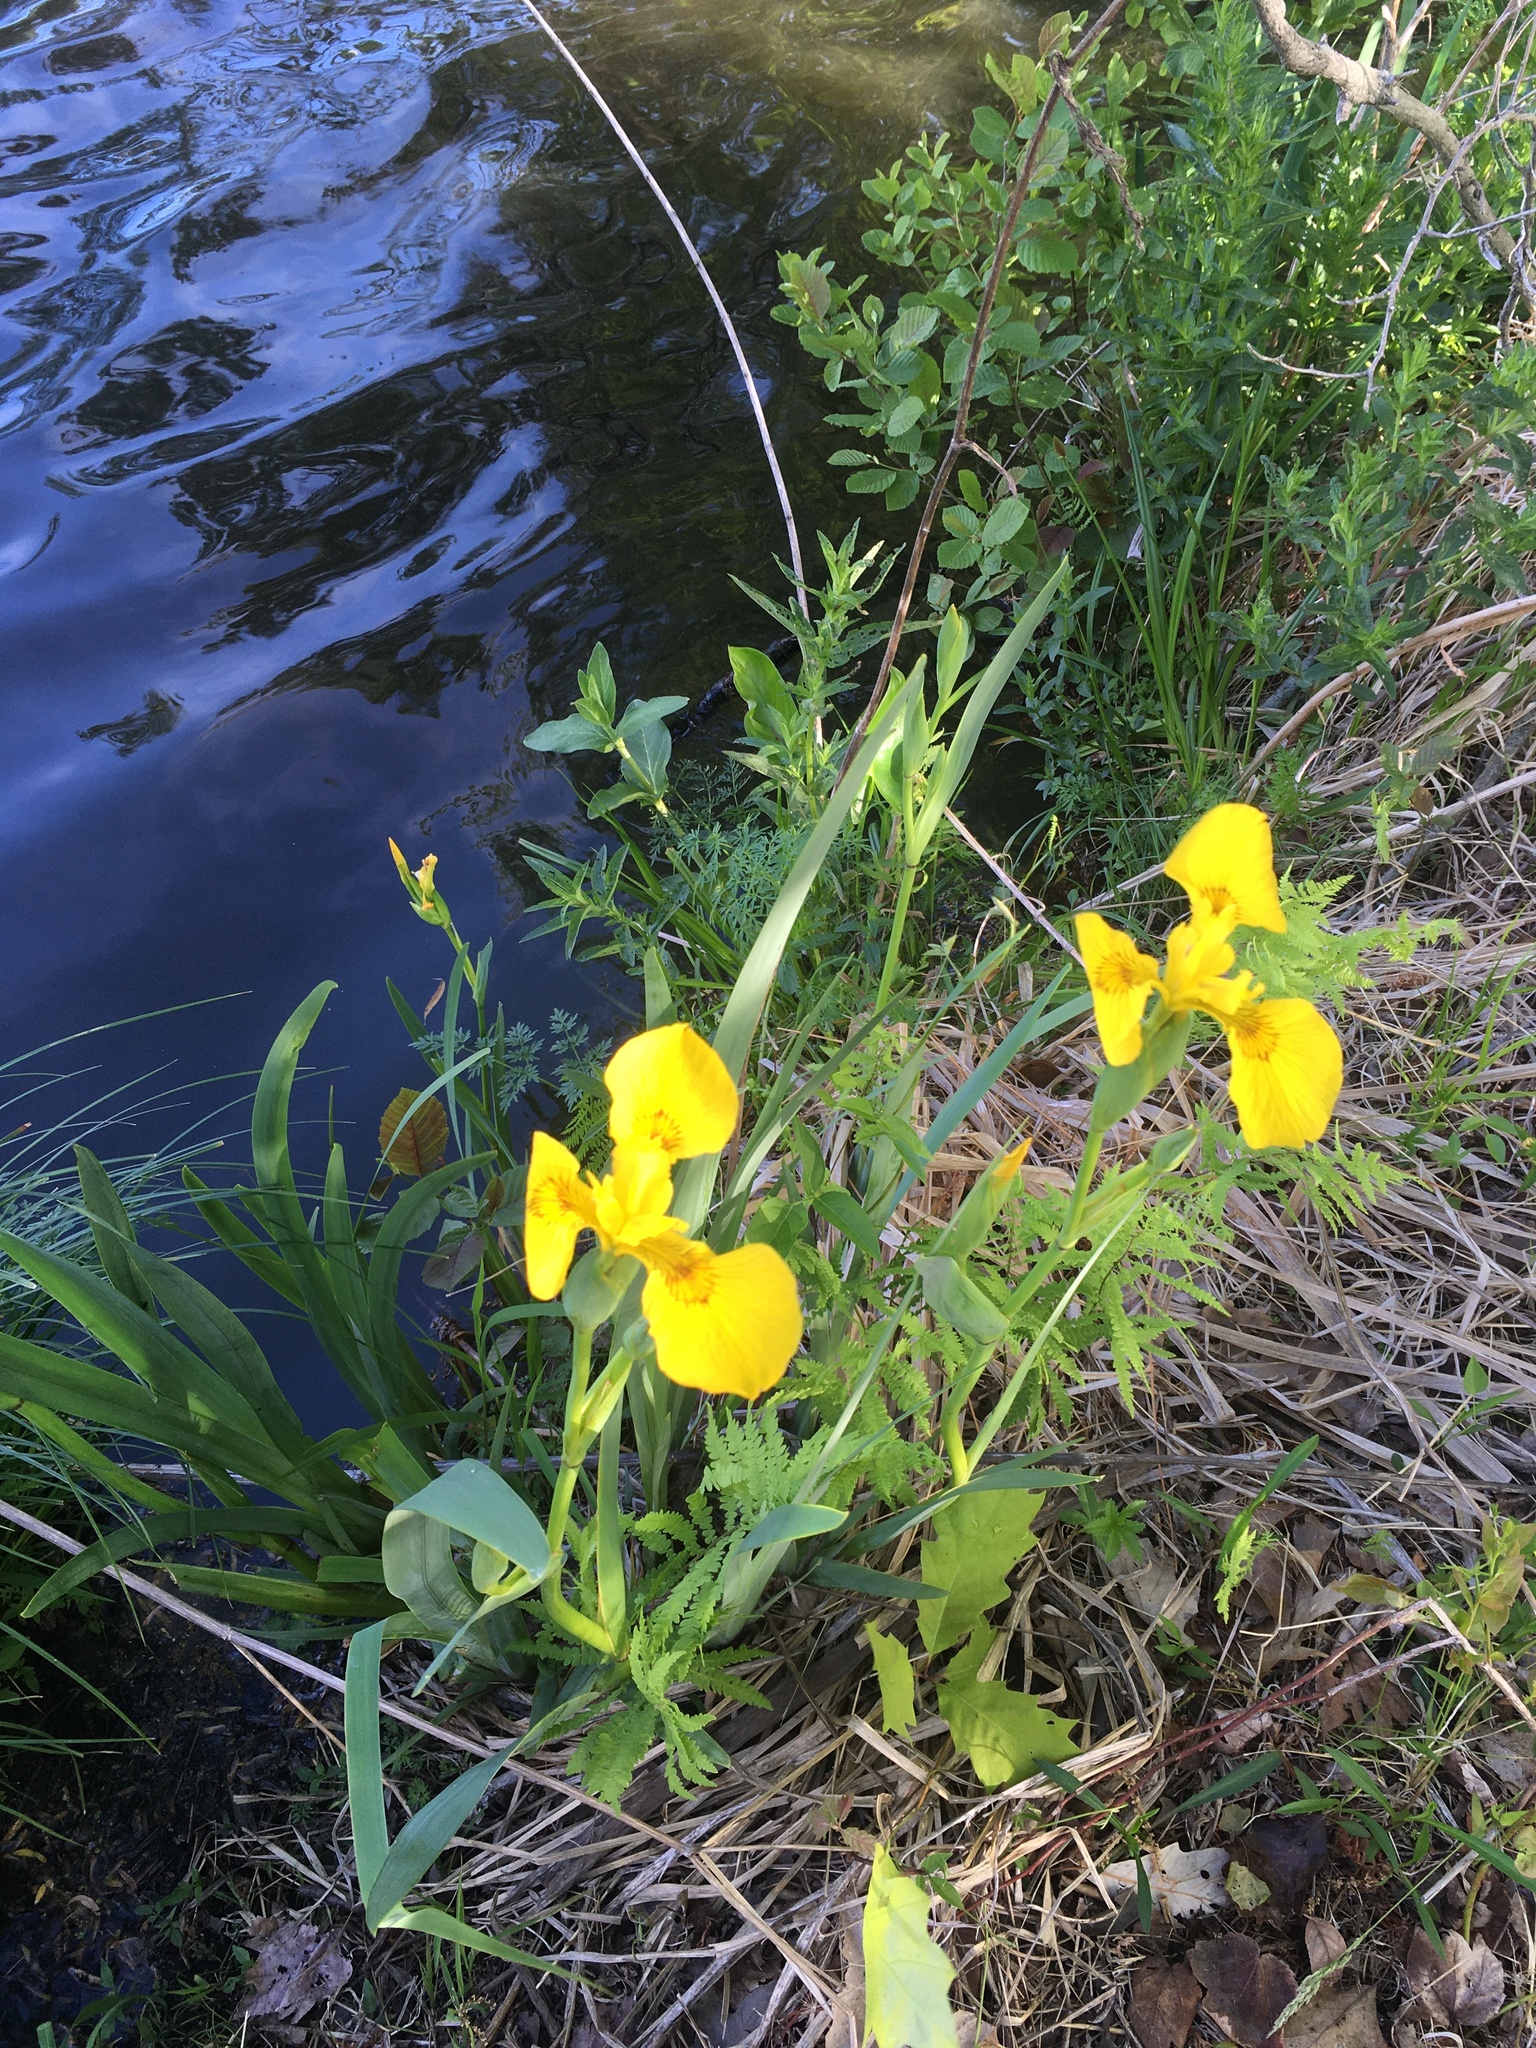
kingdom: Plantae
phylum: Tracheophyta
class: Liliopsida
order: Asparagales
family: Iridaceae
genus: Iris
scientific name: Iris pseudacorus
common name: Yellow flag
